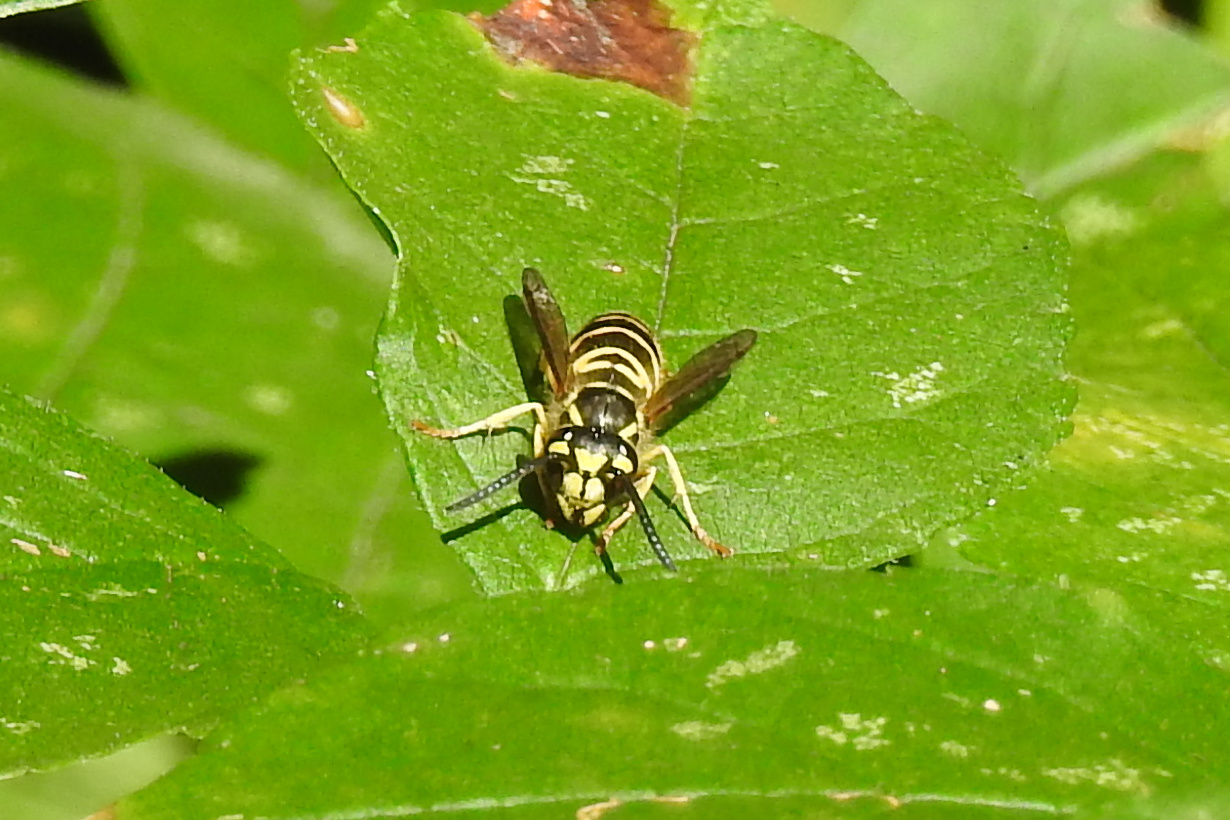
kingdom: Animalia
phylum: Arthropoda
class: Insecta
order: Hymenoptera
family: Vespidae
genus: Vespula
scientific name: Vespula maculifrons
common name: Eastern yellowjacket
